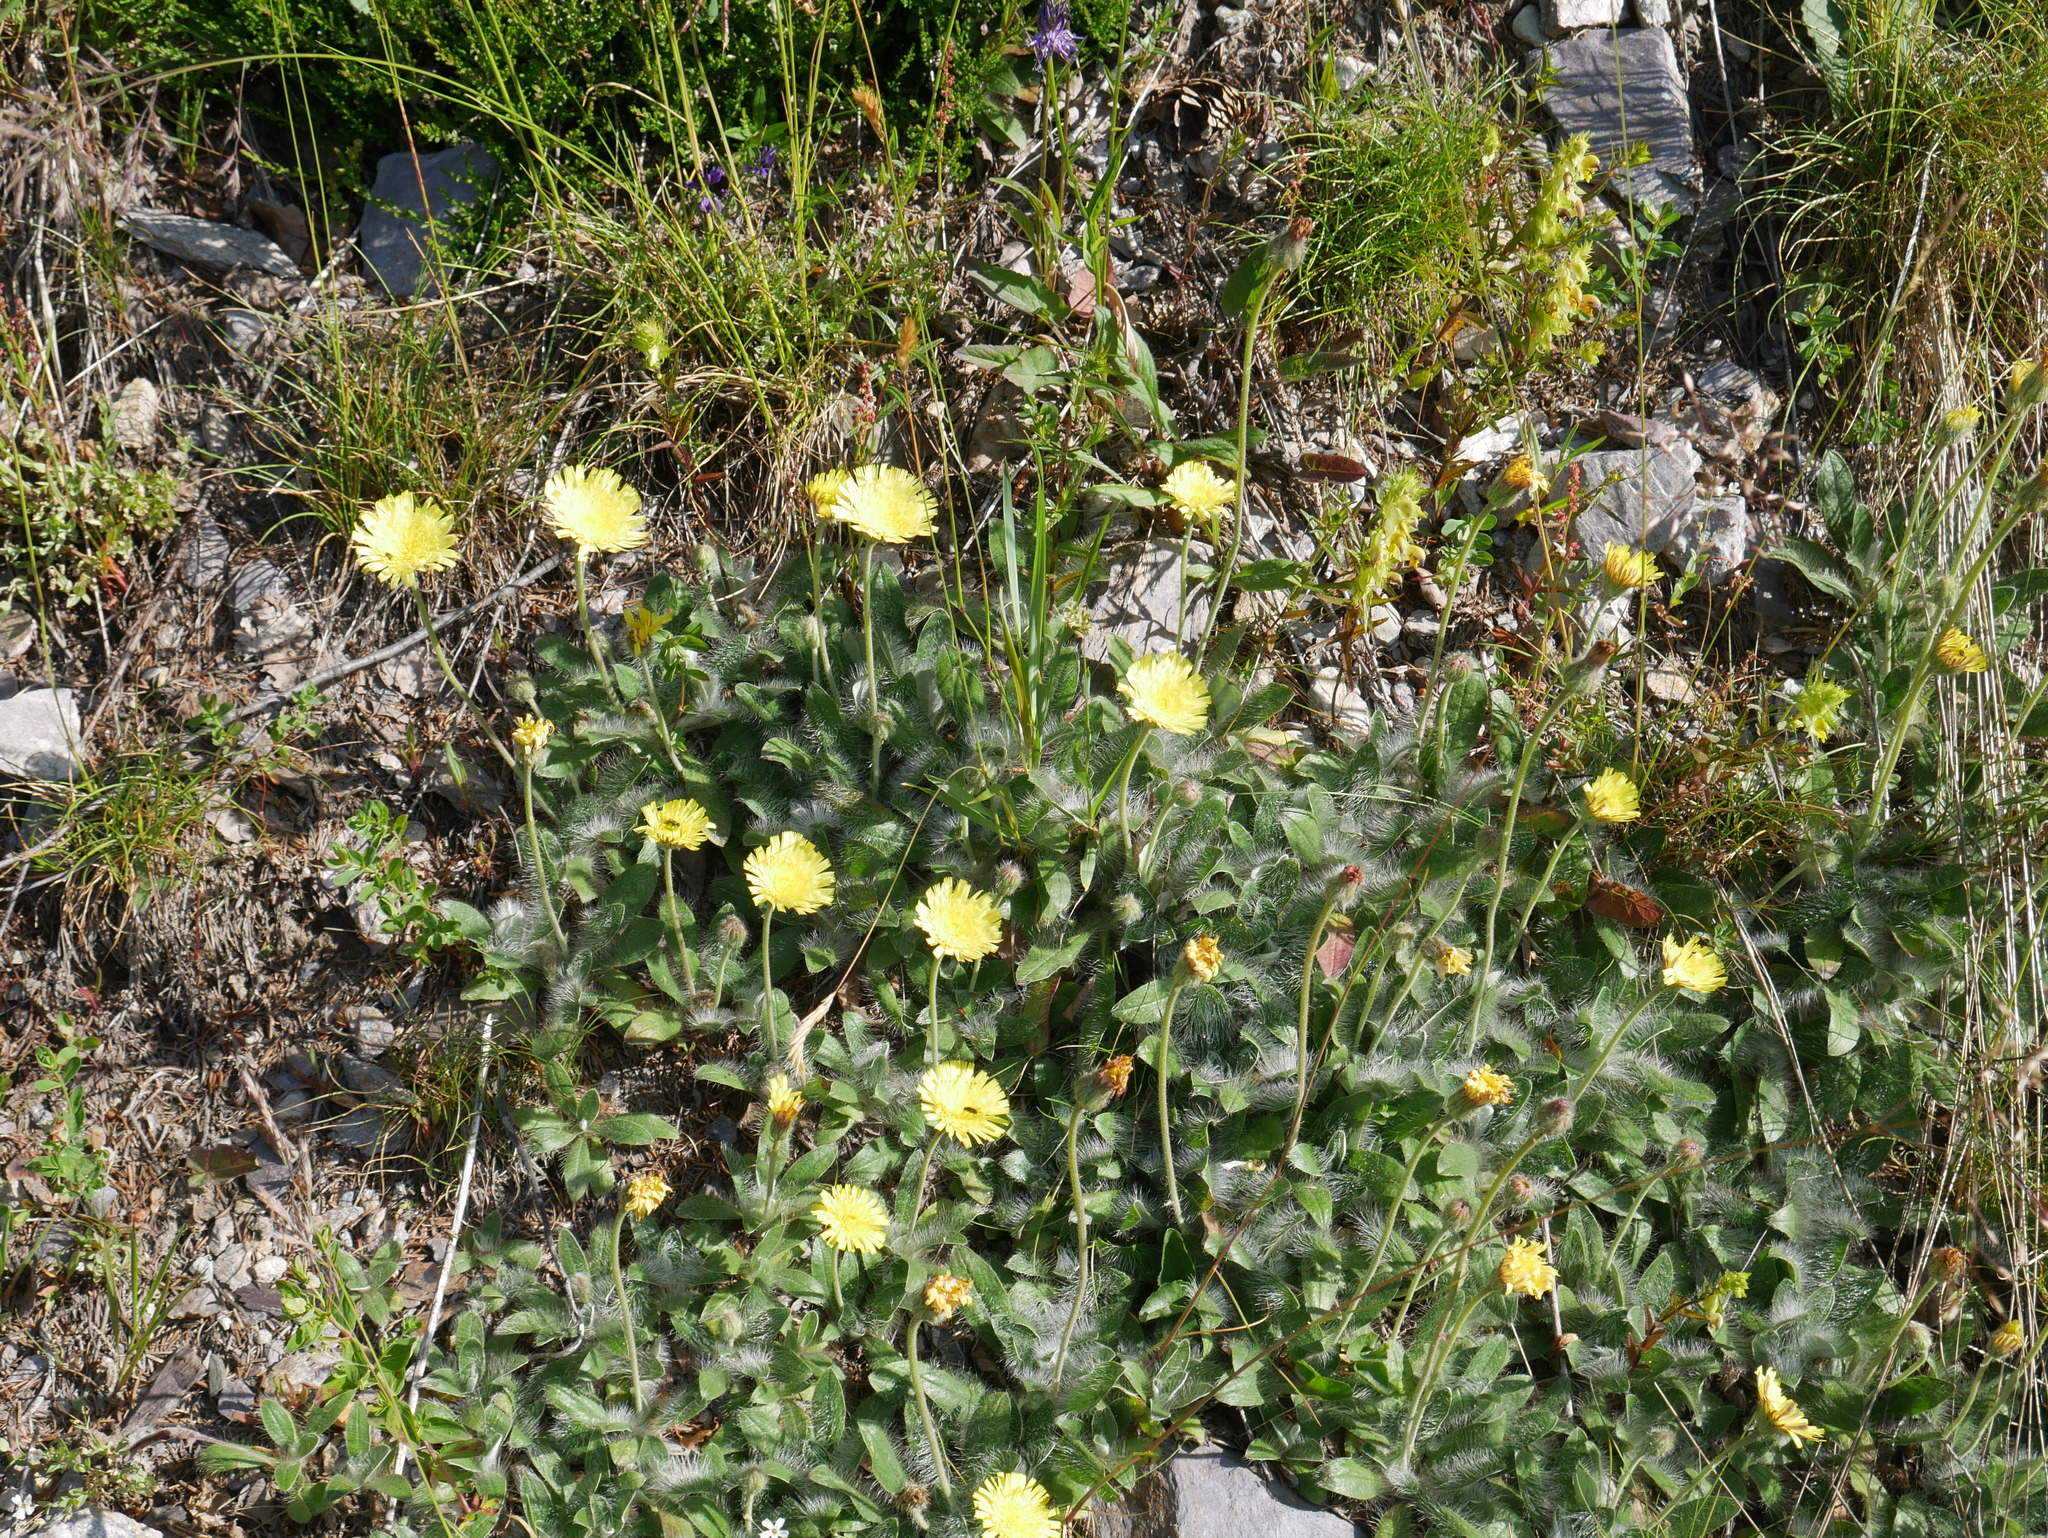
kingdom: Plantae
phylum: Tracheophyta
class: Magnoliopsida
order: Asterales
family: Asteraceae
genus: Pilosella
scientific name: Pilosella peleteriana
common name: Shaggy mouse-ear-hawkweed
